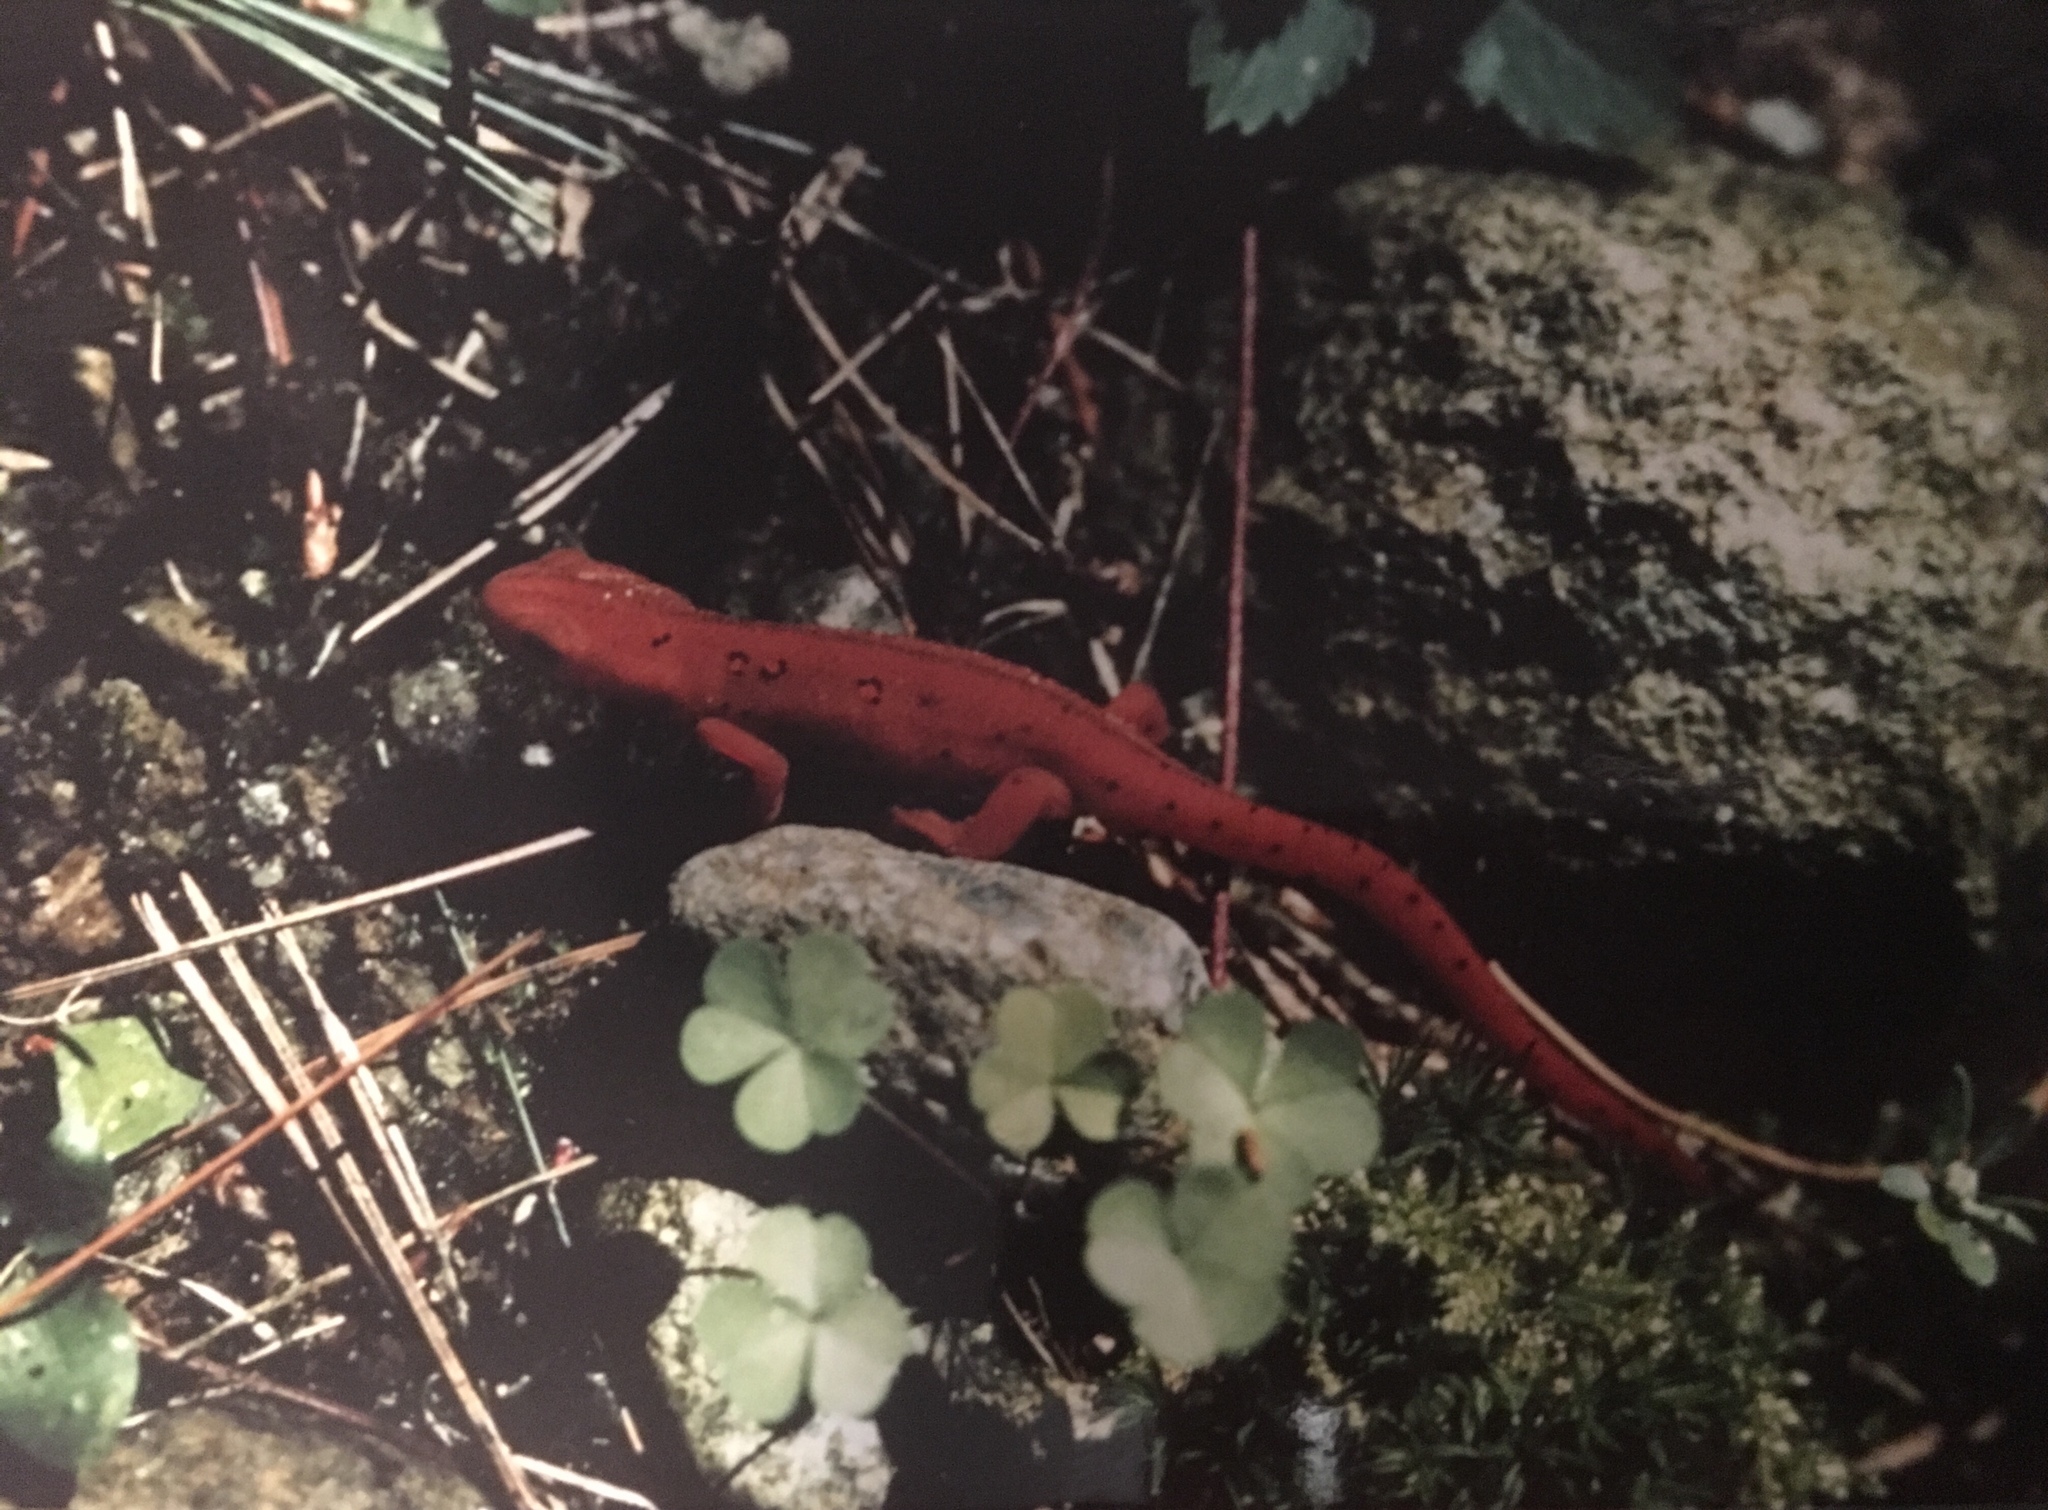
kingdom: Animalia
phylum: Chordata
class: Amphibia
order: Caudata
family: Salamandridae
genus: Notophthalmus
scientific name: Notophthalmus viridescens
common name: Eastern newt
